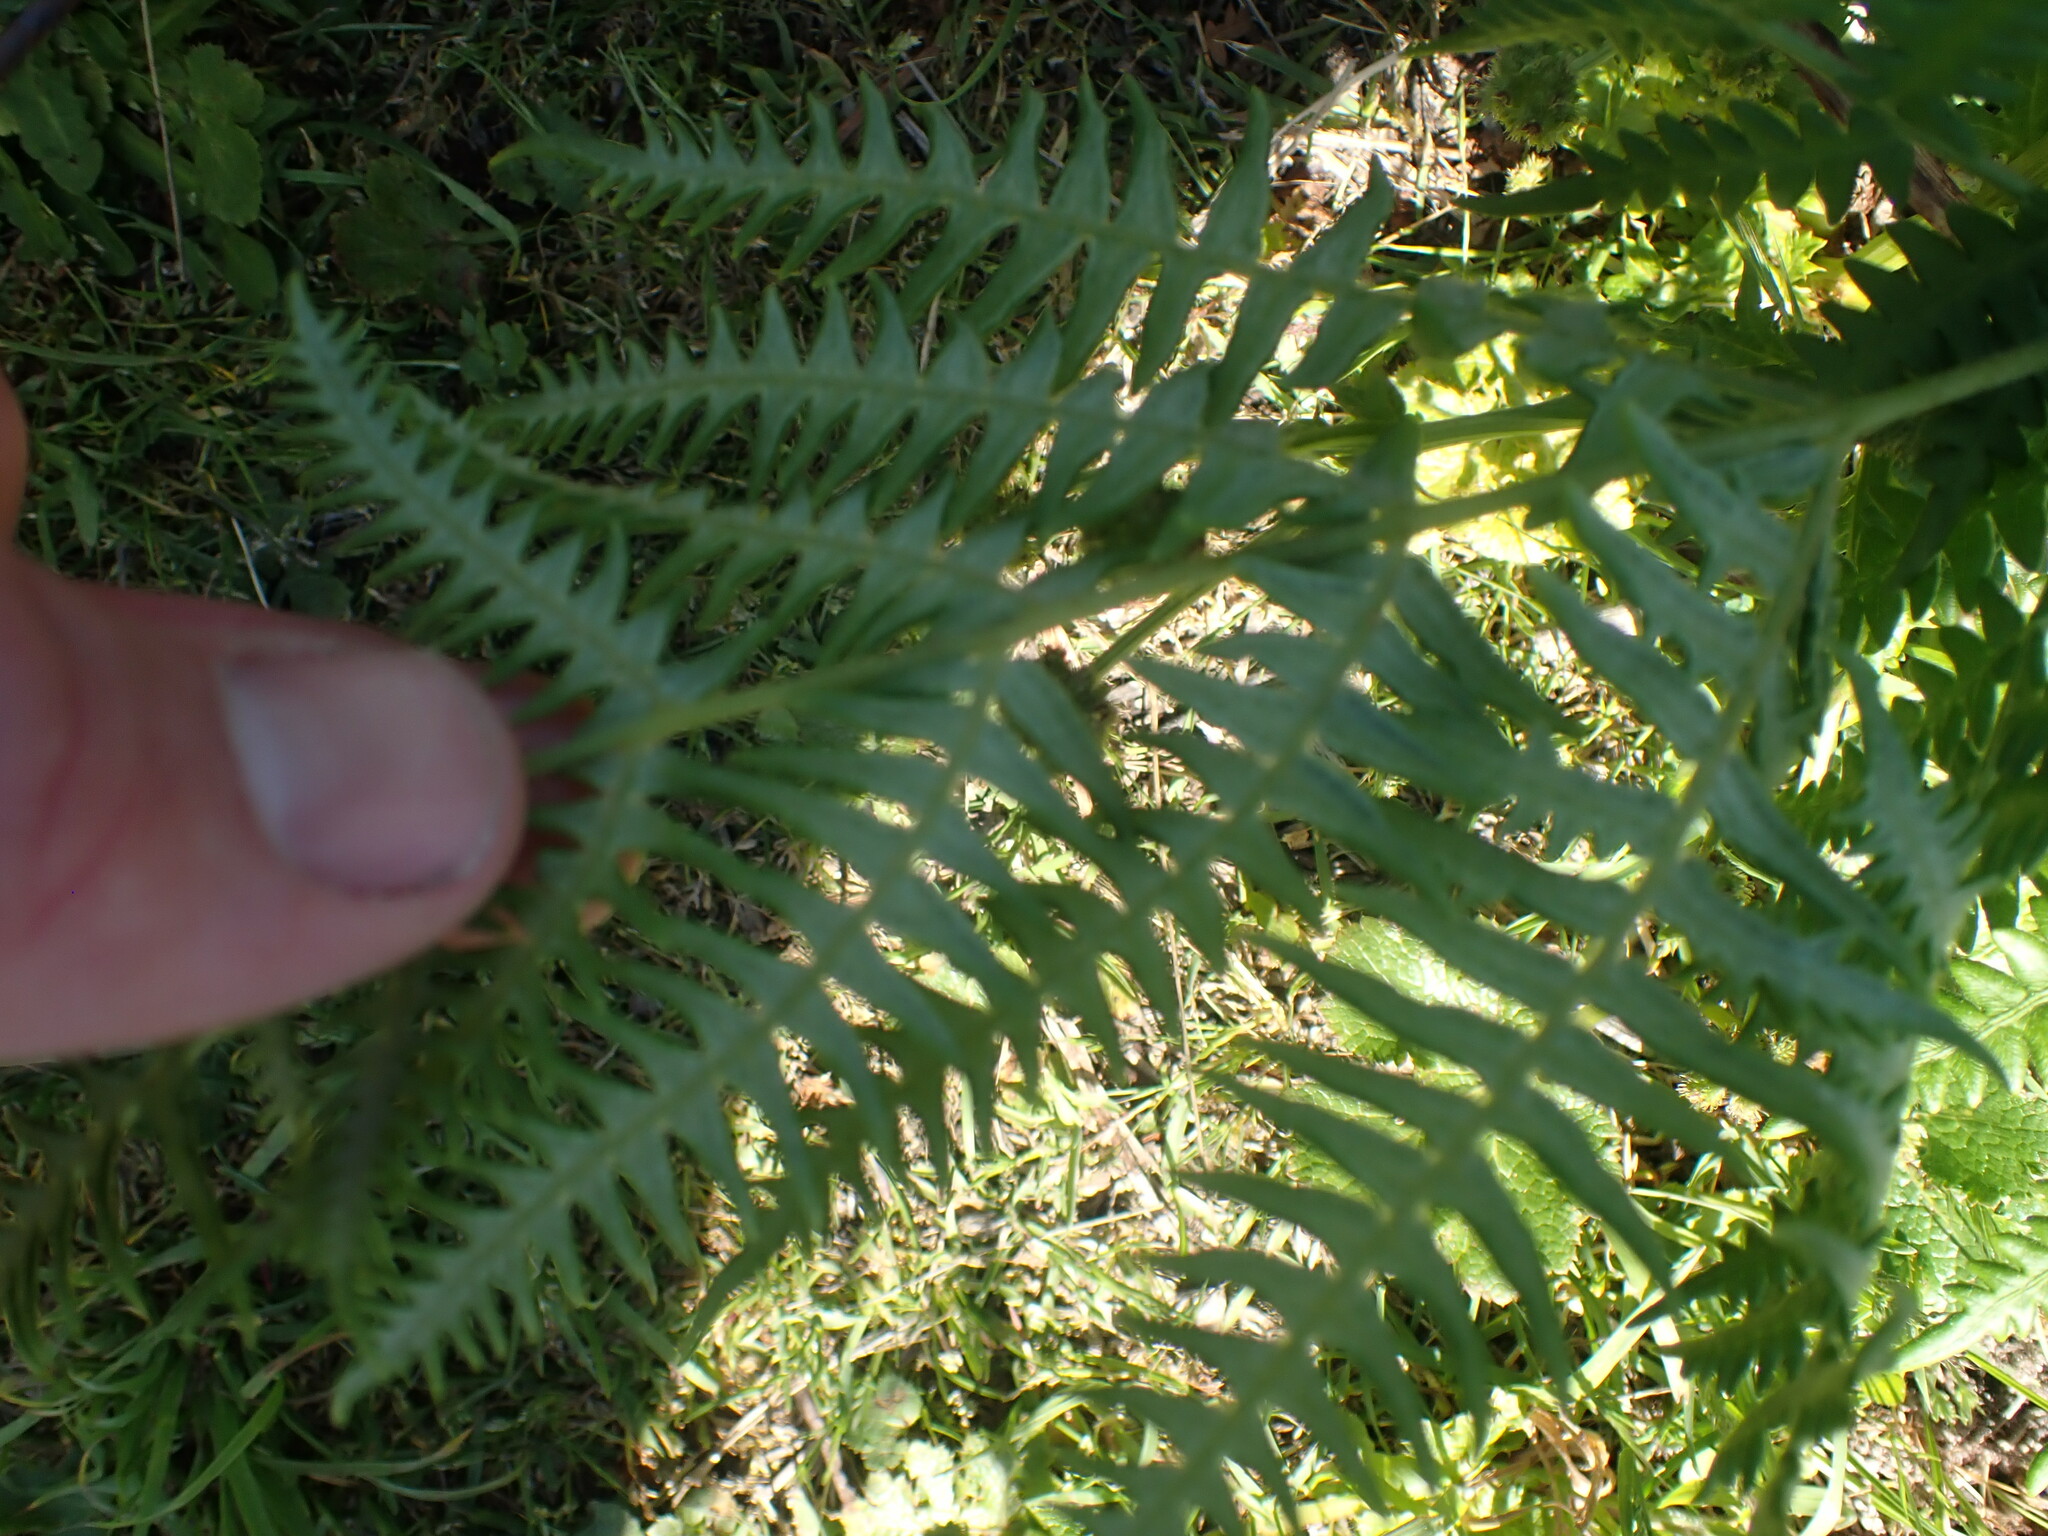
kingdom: Plantae
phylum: Tracheophyta
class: Polypodiopsida
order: Polypodiales
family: Dennstaedtiaceae
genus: Pteridium
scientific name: Pteridium aquilinum
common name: Bracken
